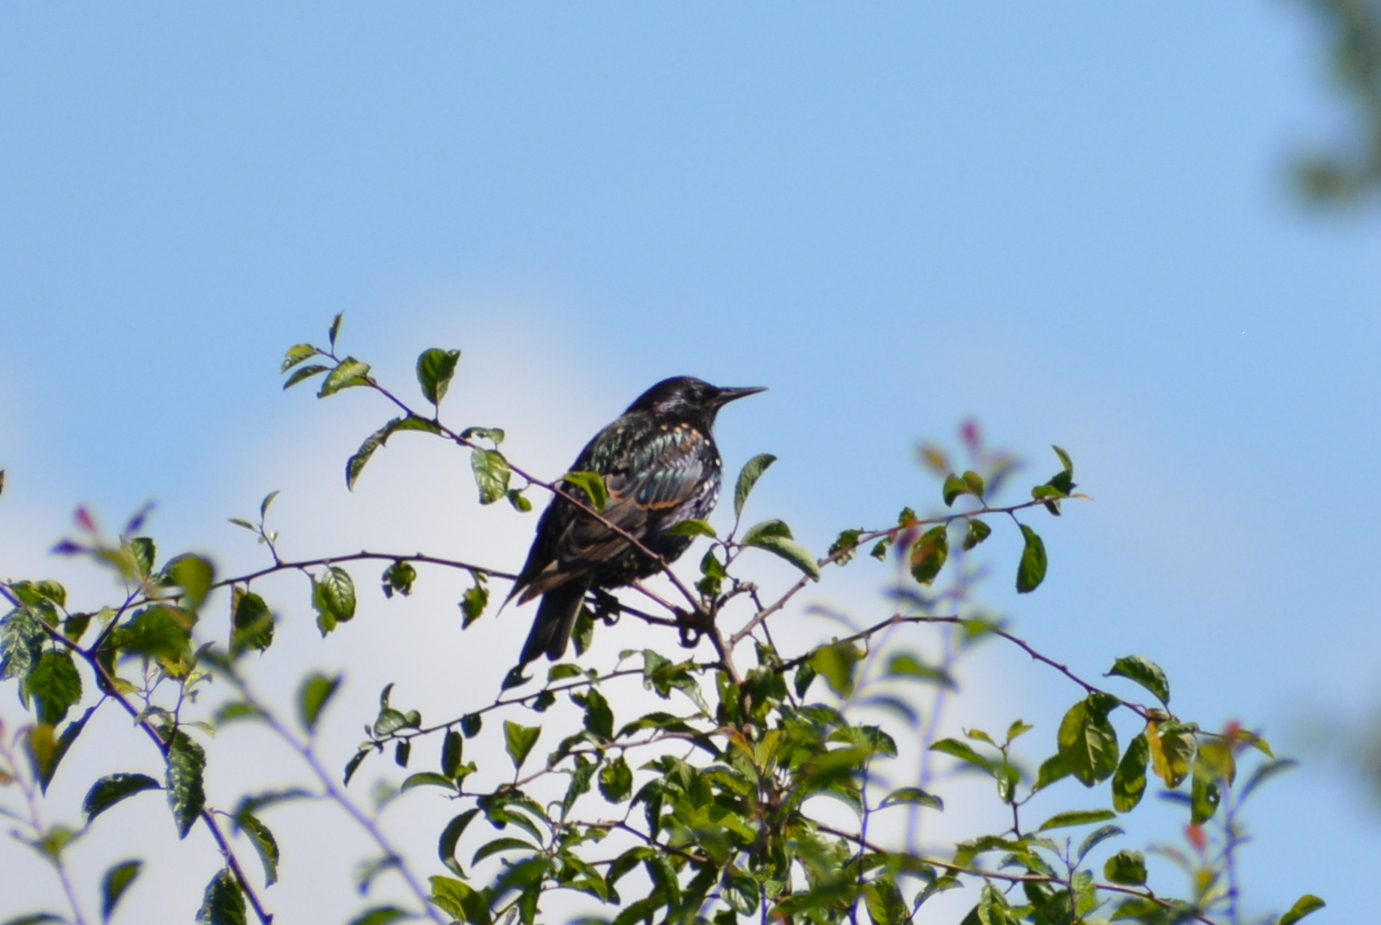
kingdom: Animalia
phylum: Chordata
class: Aves
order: Passeriformes
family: Sturnidae
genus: Sturnus
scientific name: Sturnus vulgaris
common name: Common starling
